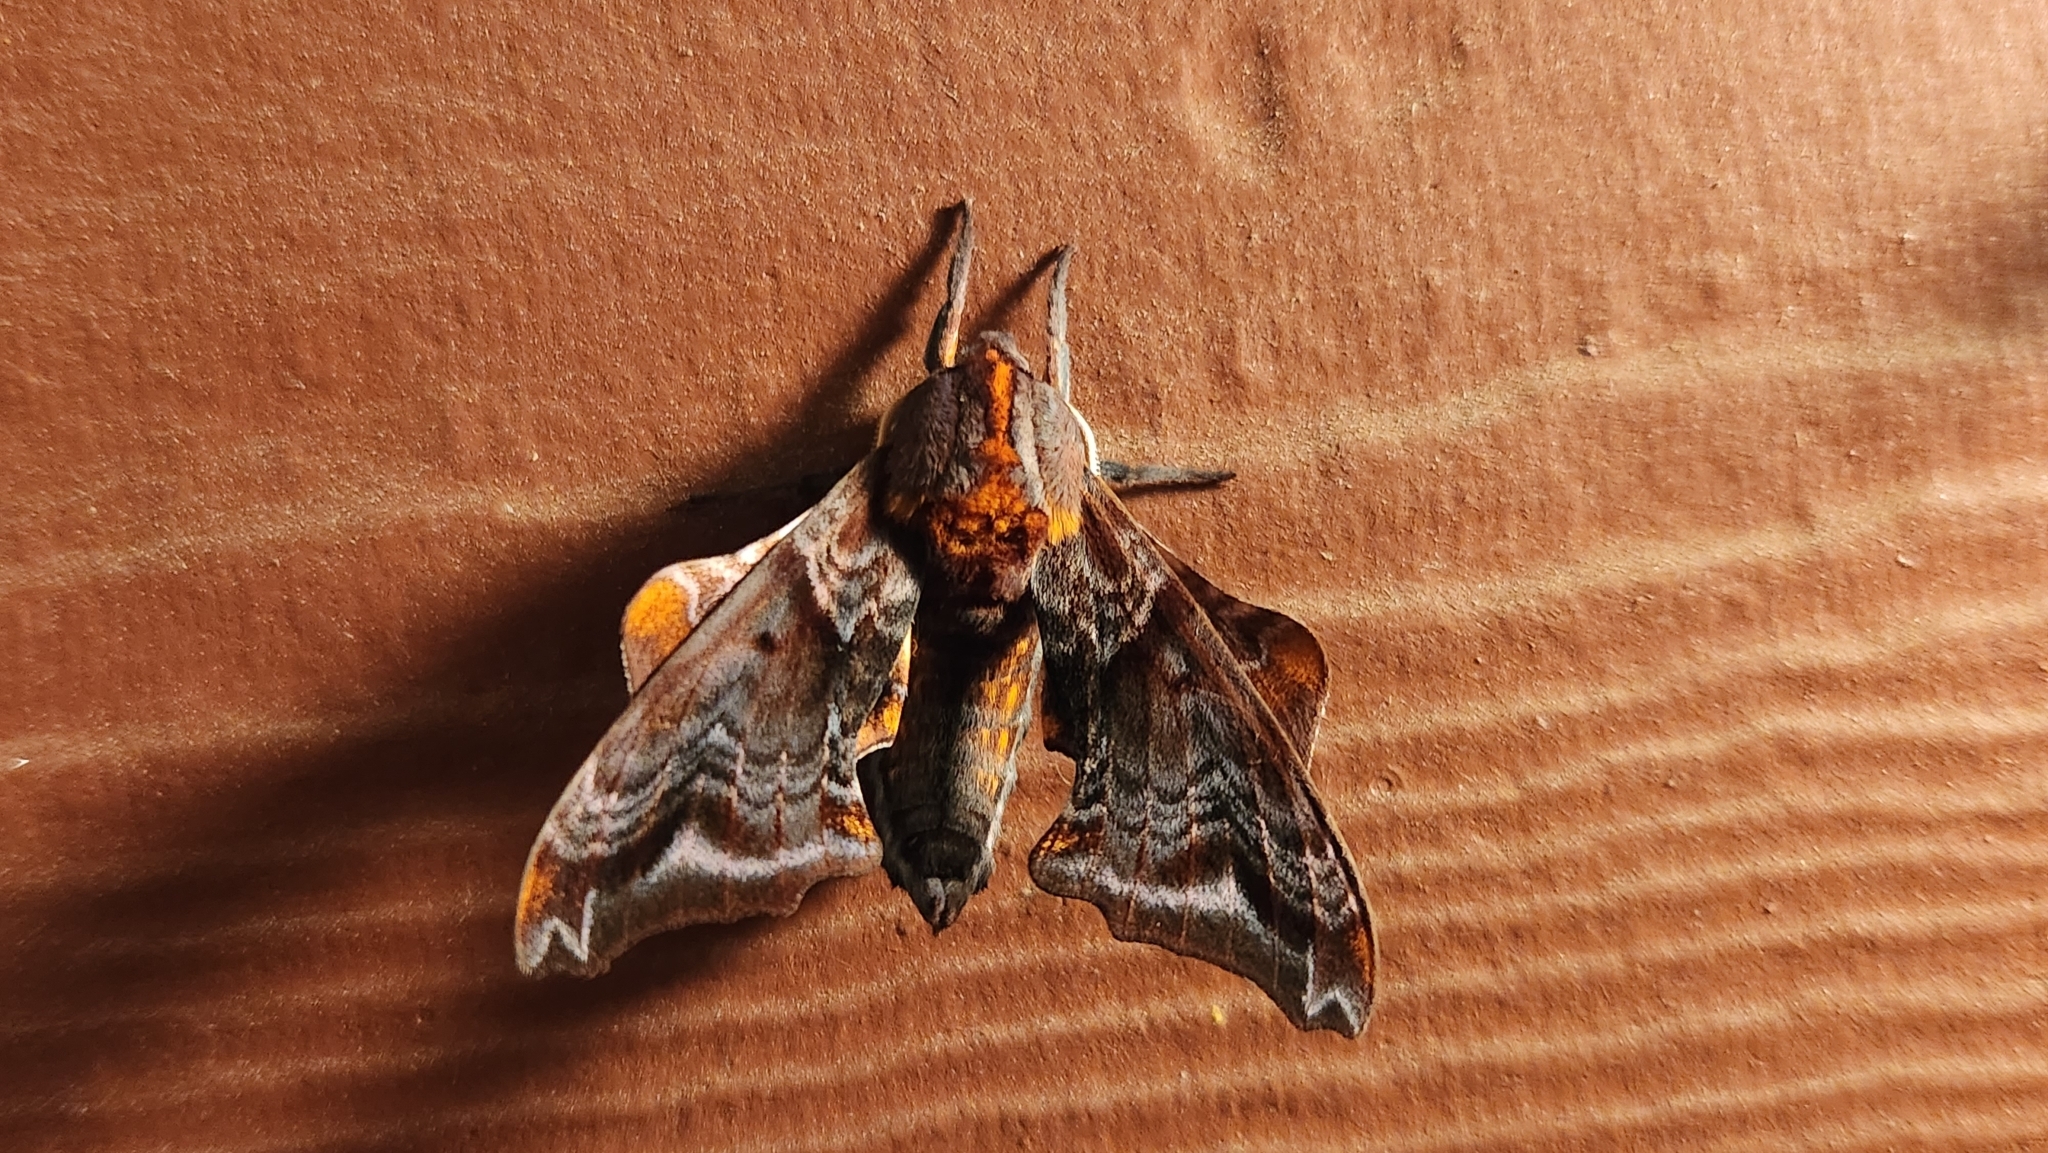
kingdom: Animalia
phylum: Arthropoda
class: Insecta
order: Lepidoptera
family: Sphingidae
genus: Paonias
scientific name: Paonias myops
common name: Small-eyed sphinx
